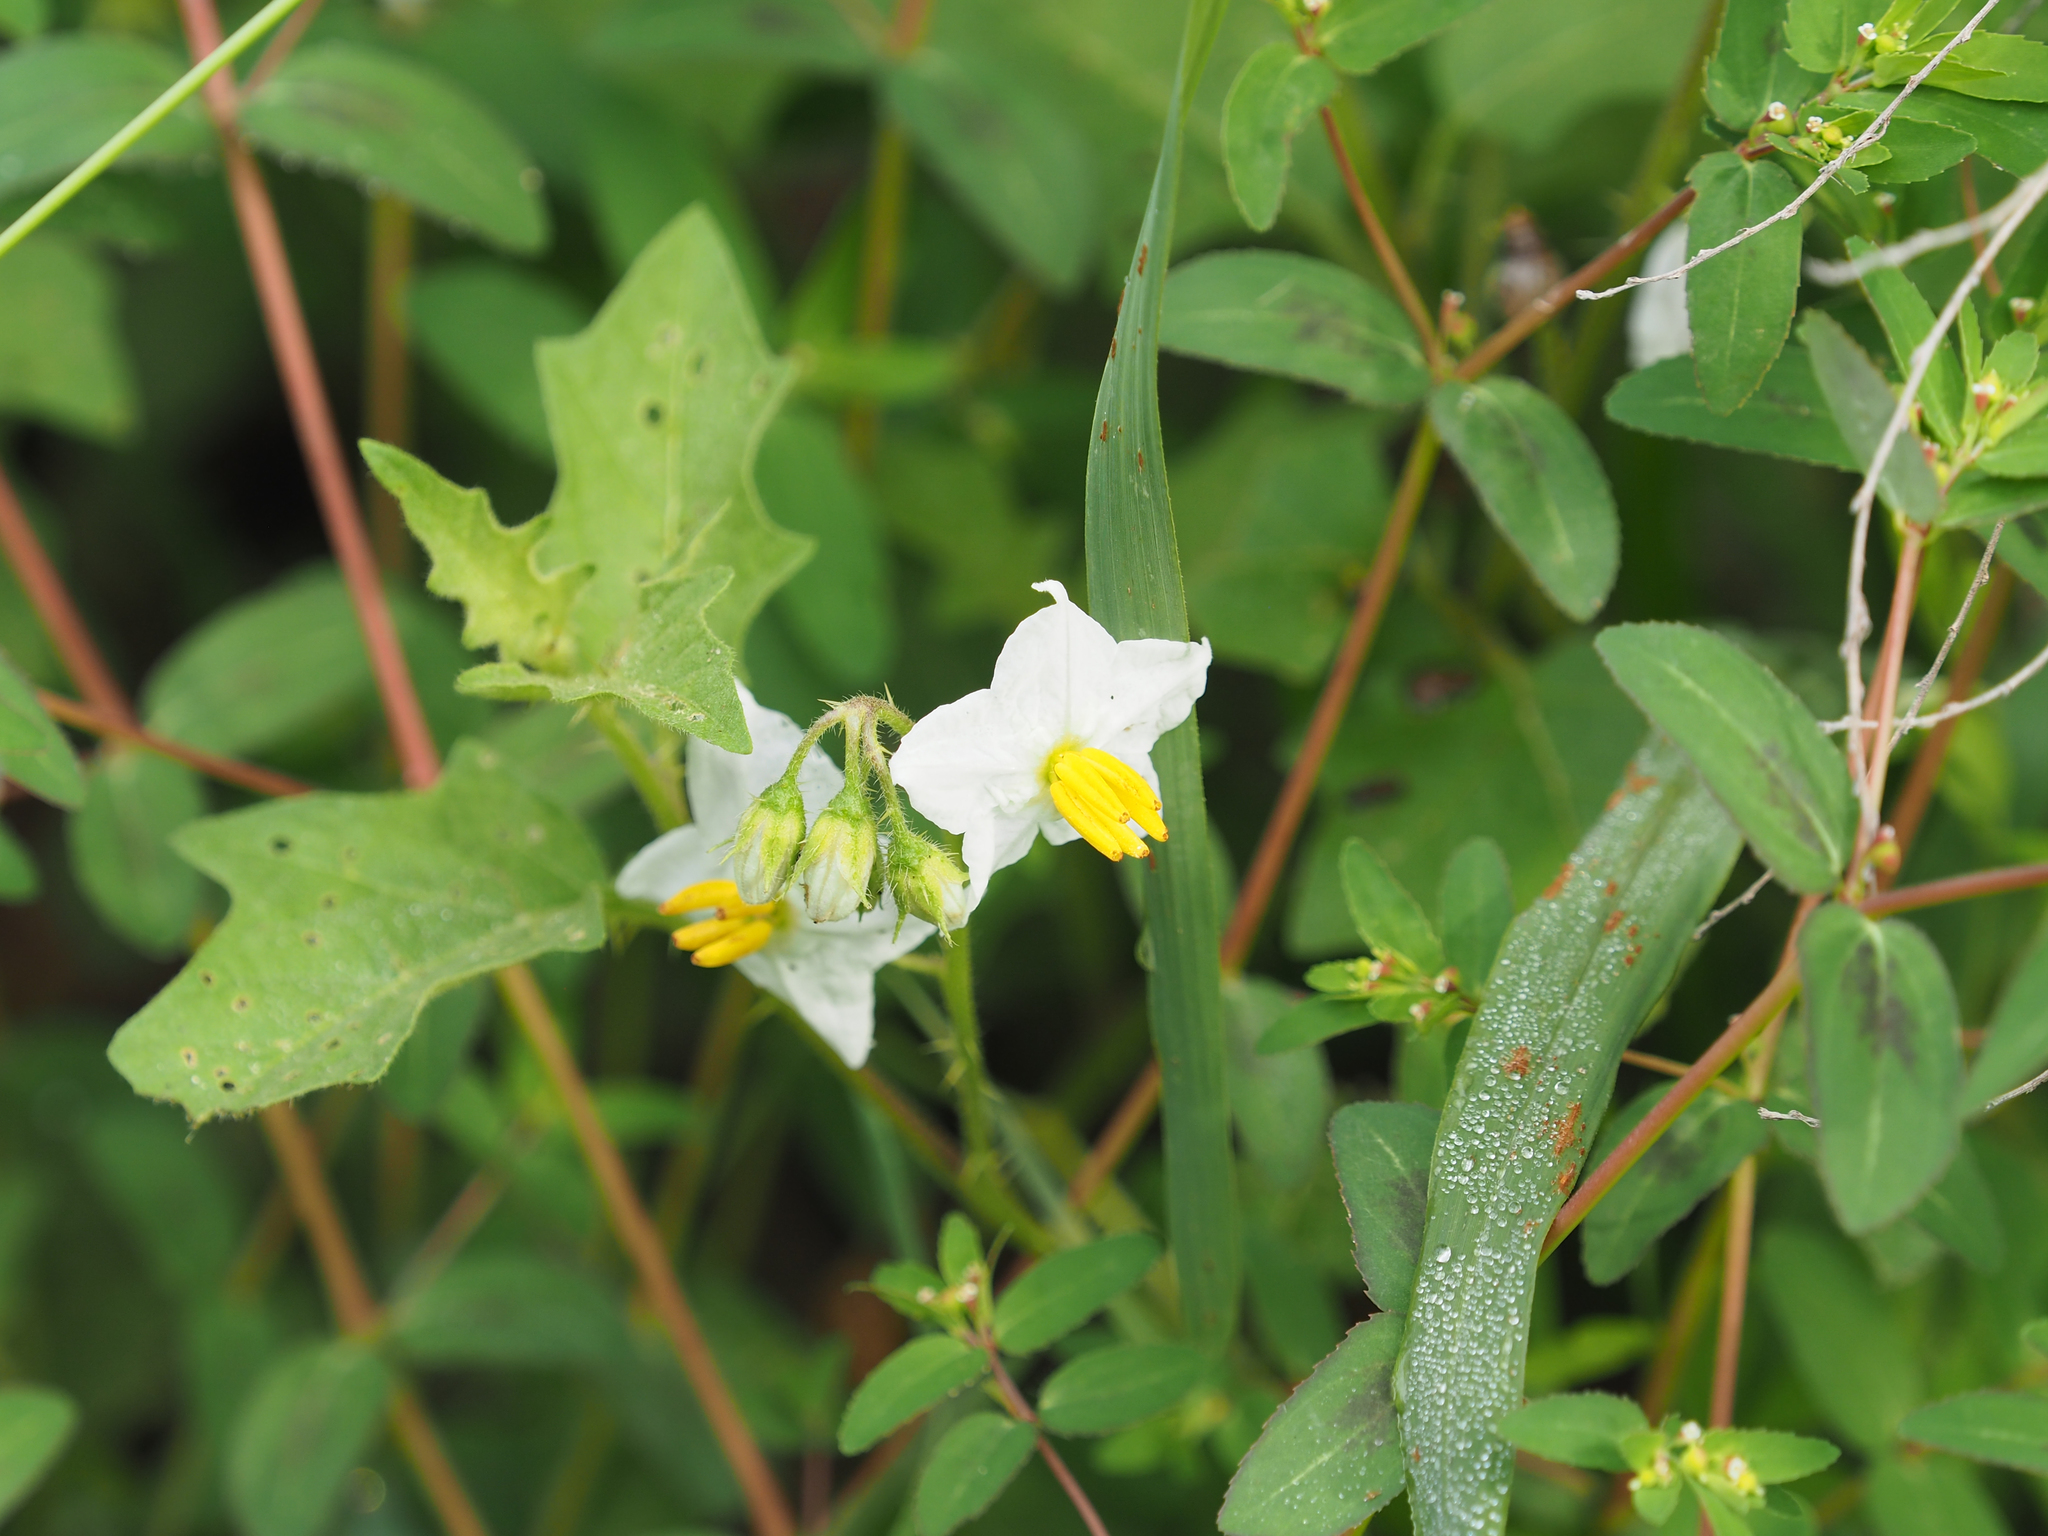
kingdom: Plantae
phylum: Tracheophyta
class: Magnoliopsida
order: Solanales
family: Solanaceae
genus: Solanum
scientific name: Solanum carolinense
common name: Horse-nettle
